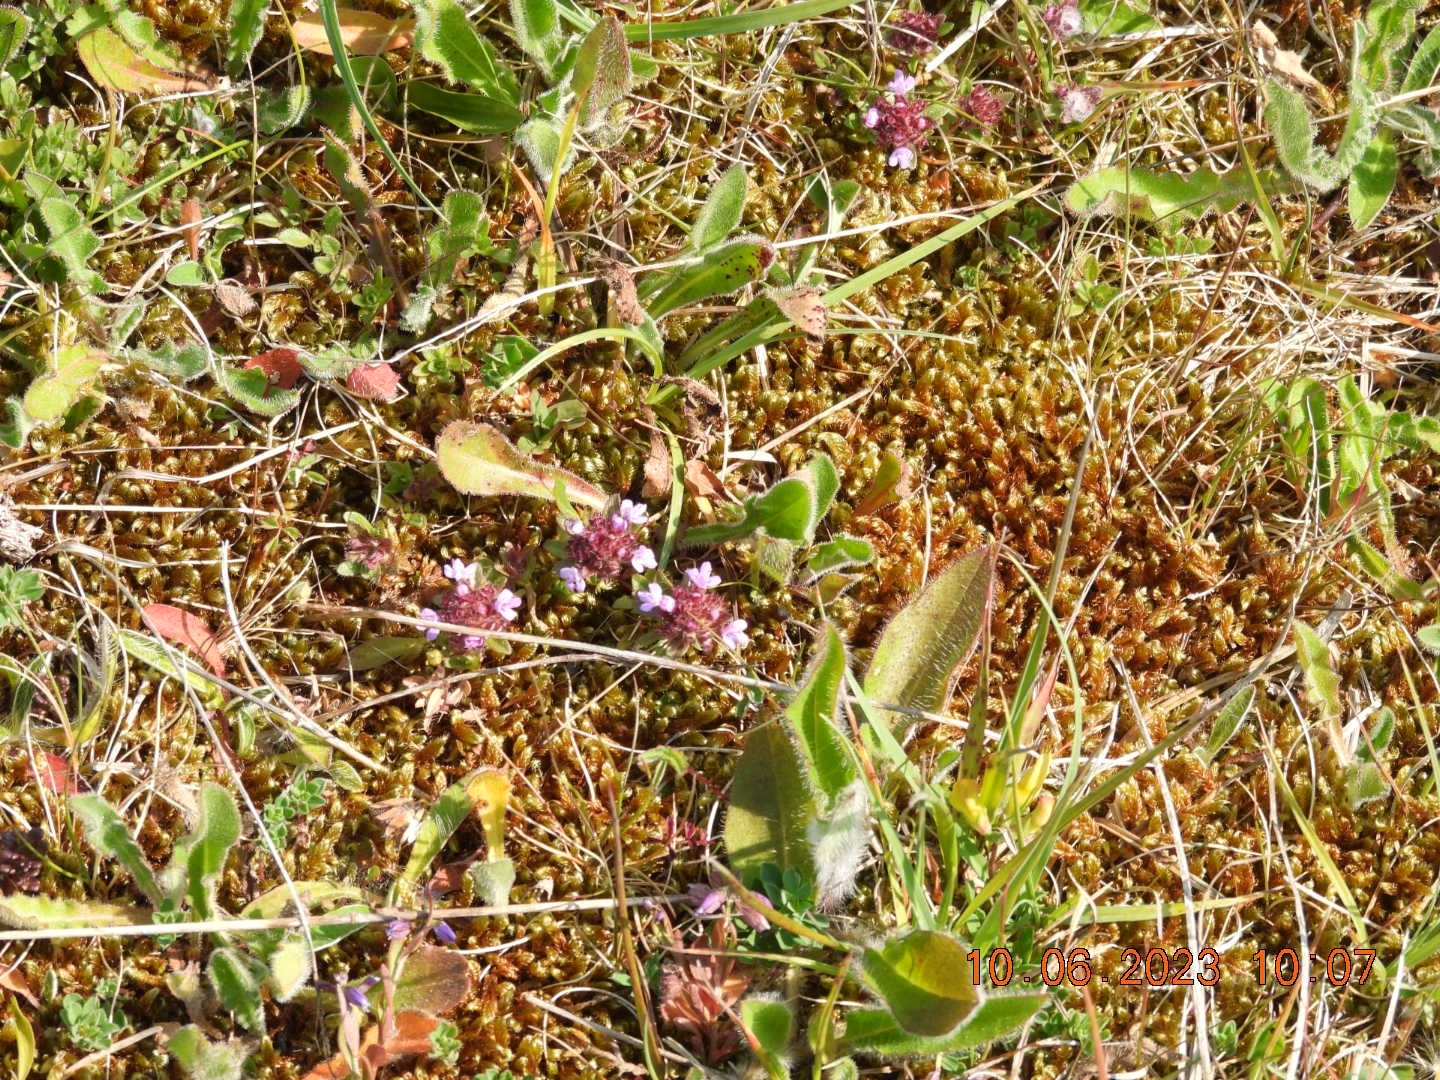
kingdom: Plantae
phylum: Tracheophyta
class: Magnoliopsida
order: Lamiales
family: Lamiaceae
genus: Thymus
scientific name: Thymus praecox
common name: Wild thyme
